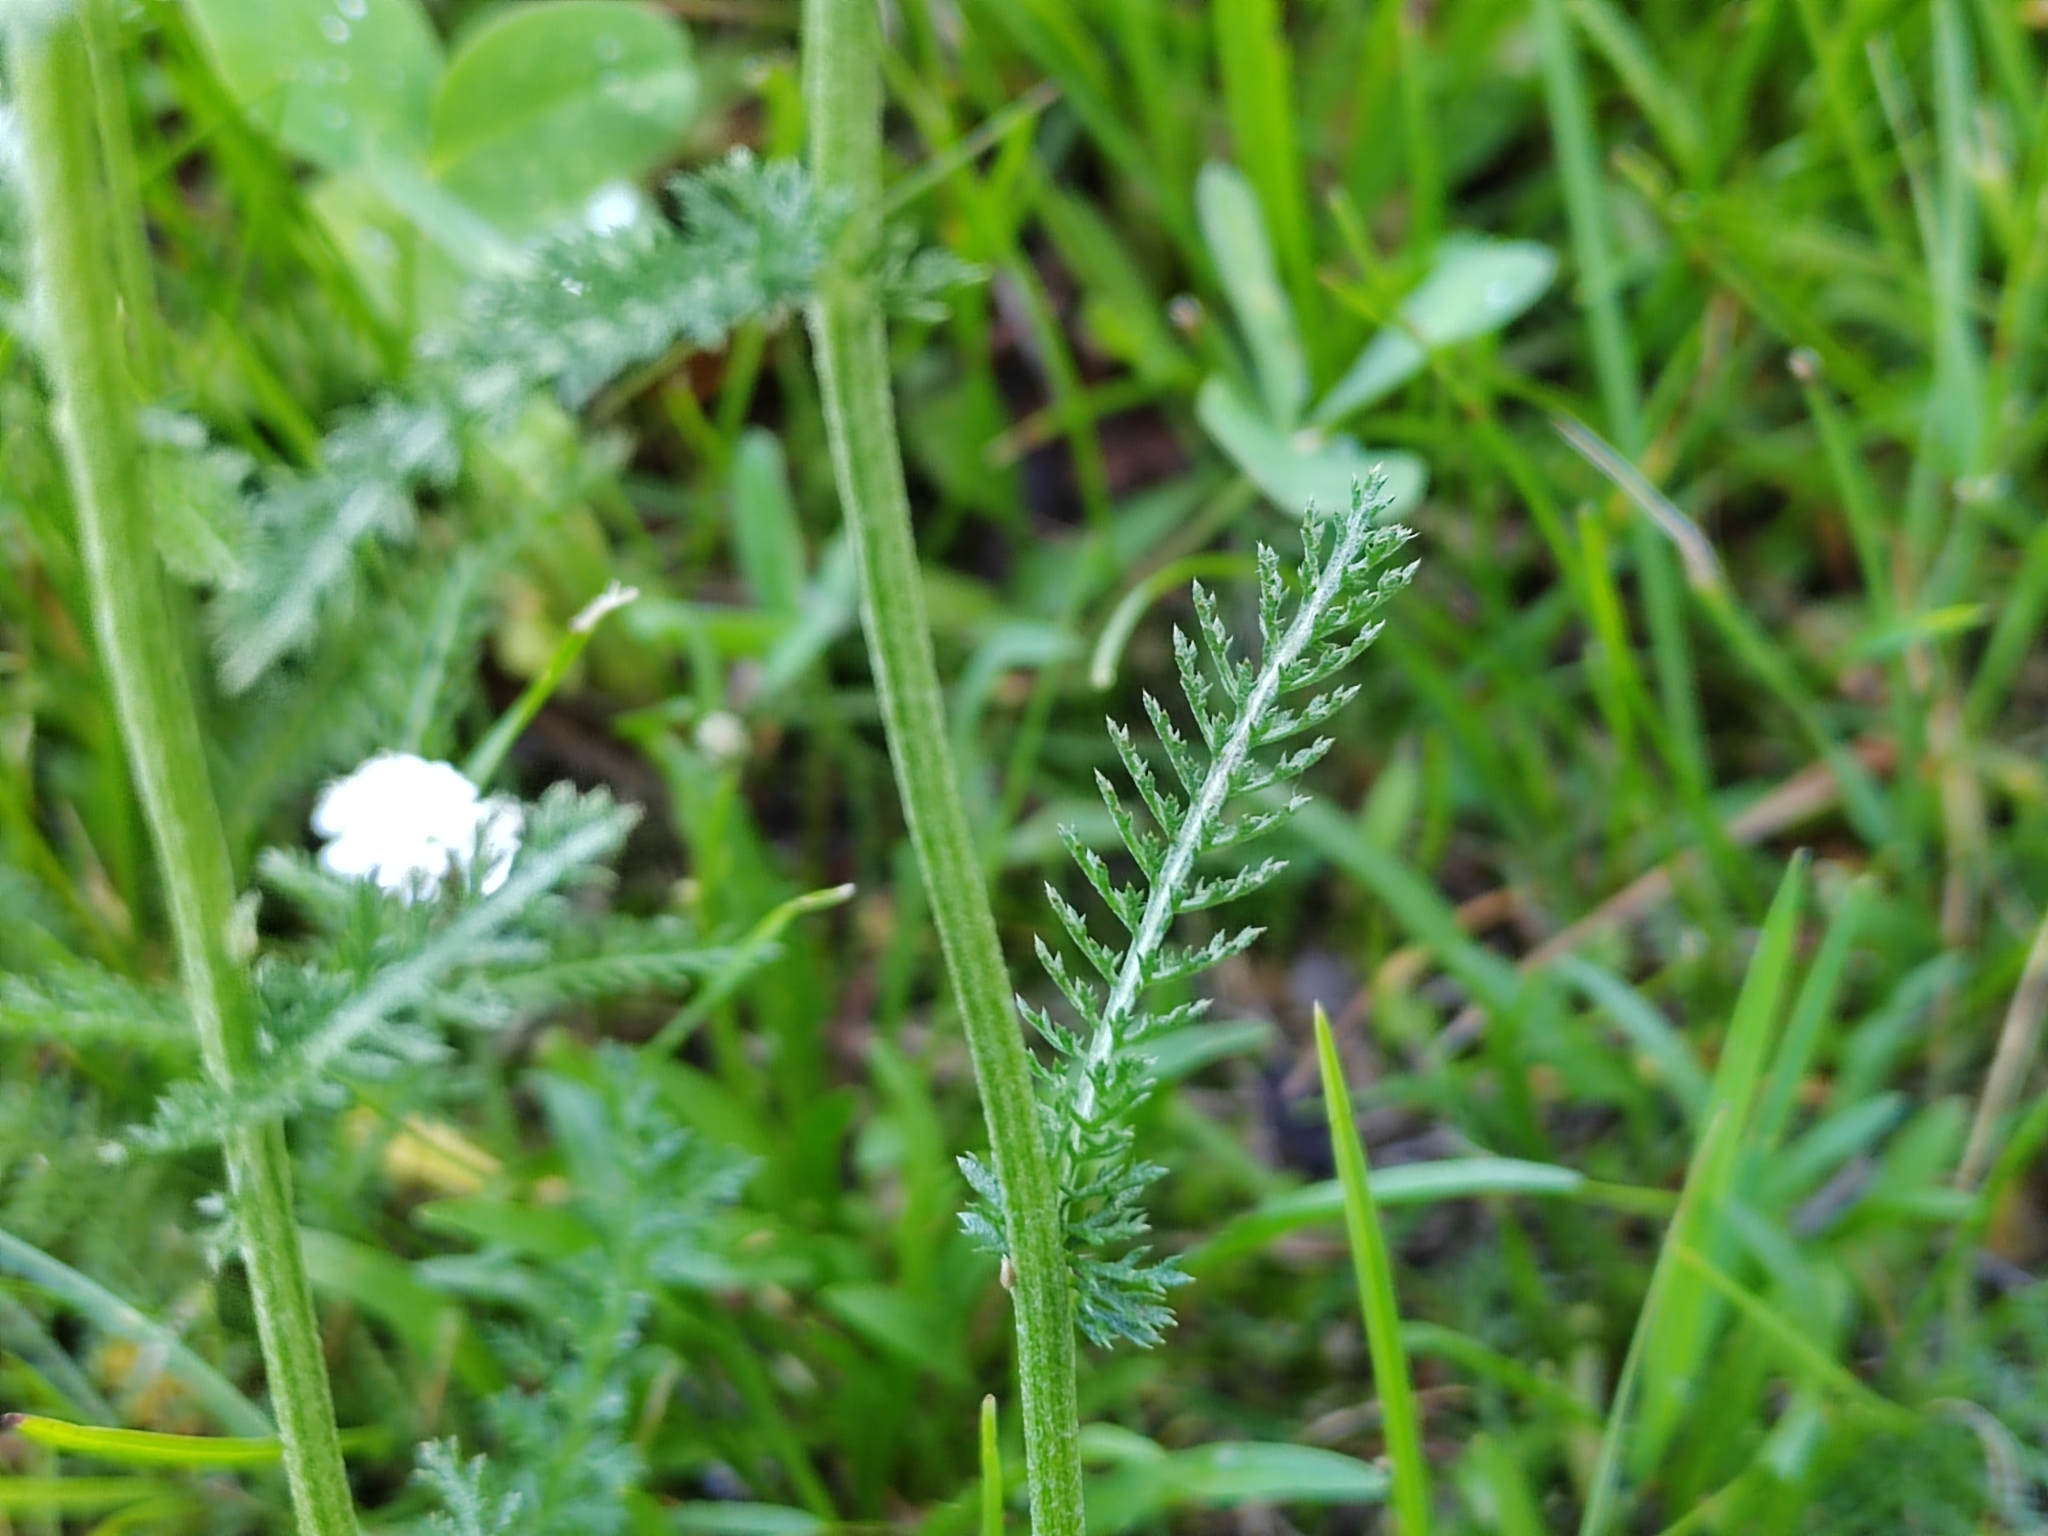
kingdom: Plantae
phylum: Tracheophyta
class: Magnoliopsida
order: Asterales
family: Asteraceae
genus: Achillea
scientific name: Achillea millefolium
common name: Yarrow
